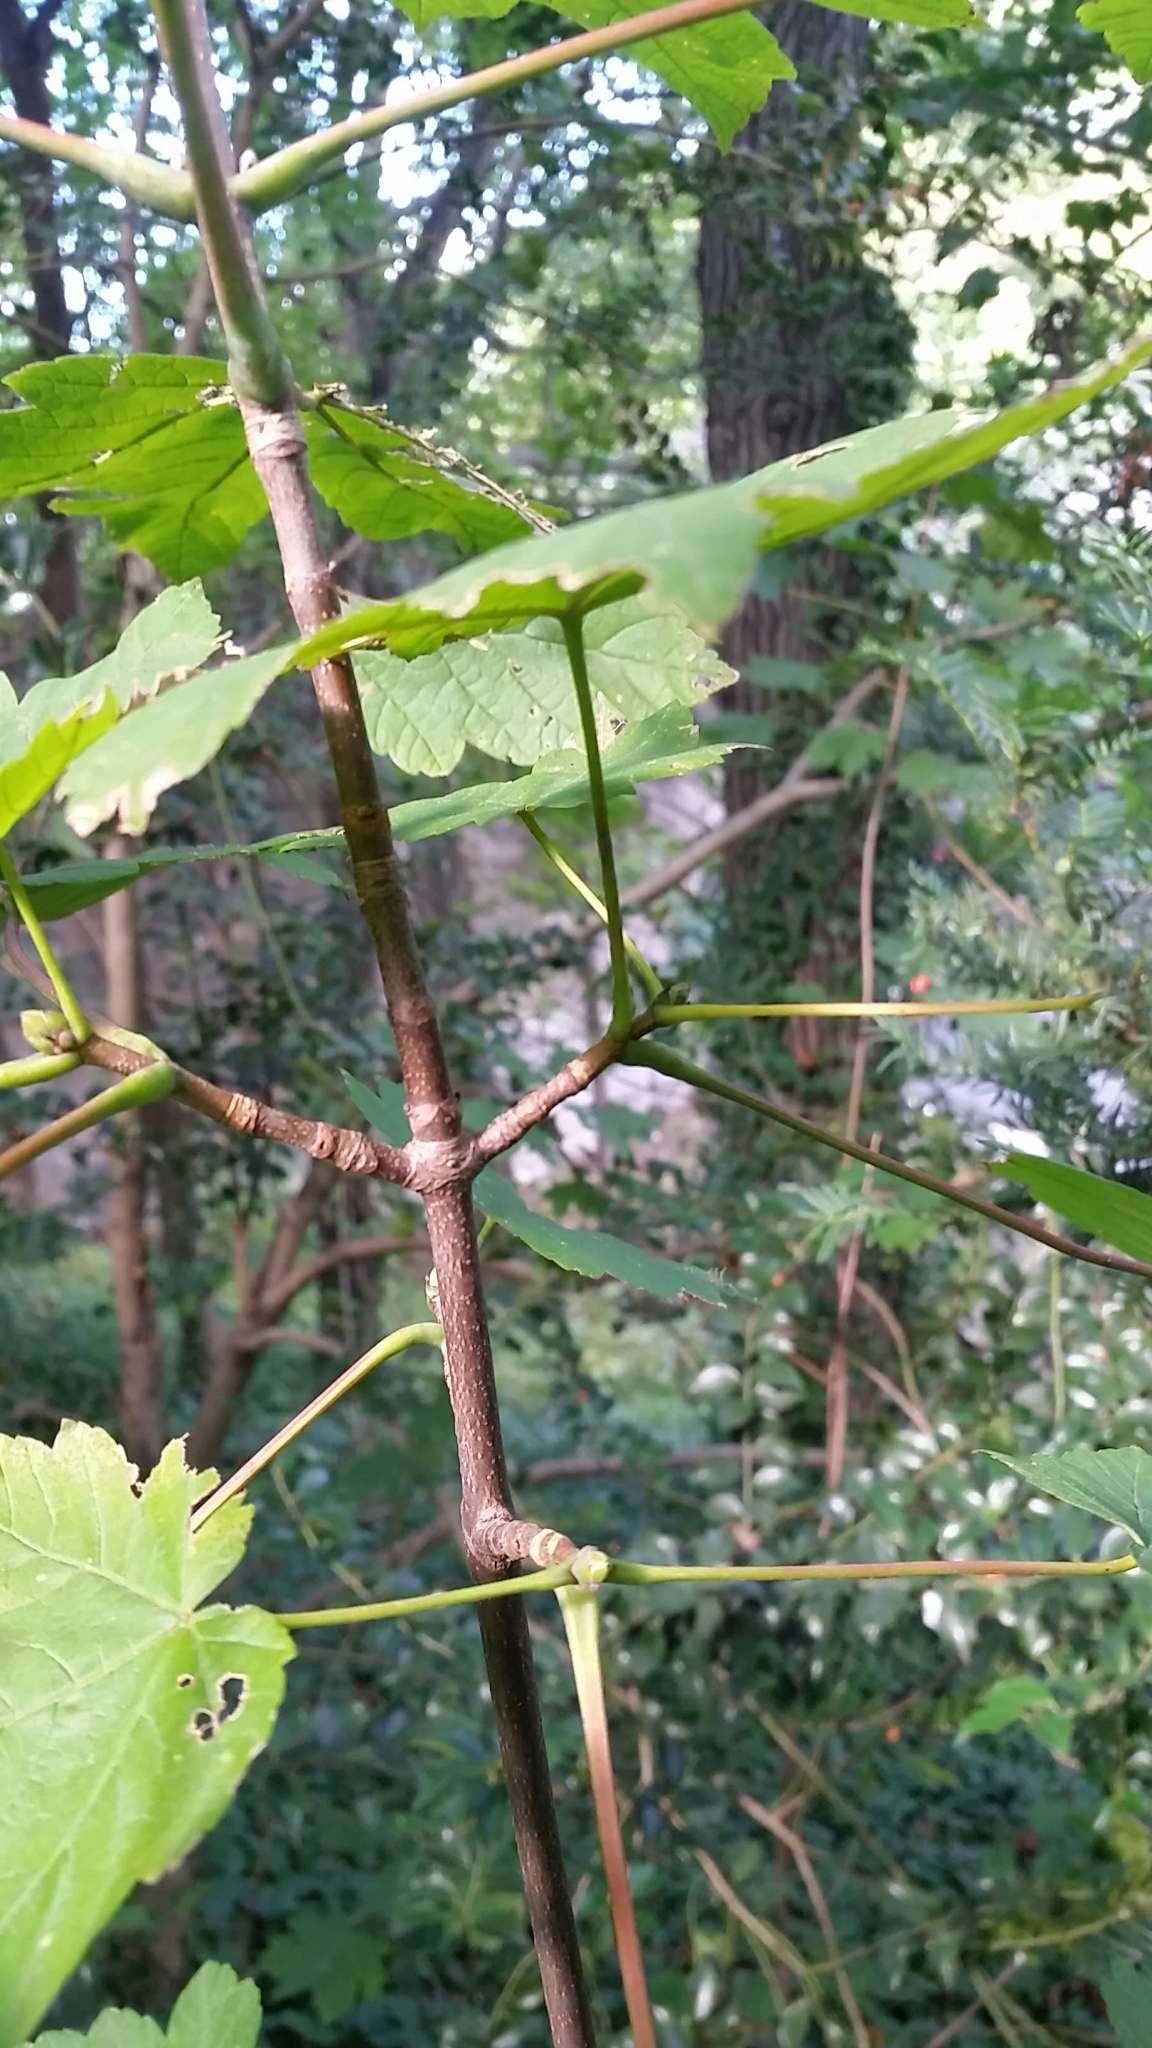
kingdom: Plantae
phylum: Tracheophyta
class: Magnoliopsida
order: Sapindales
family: Sapindaceae
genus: Acer
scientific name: Acer pseudoplatanus
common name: Sycamore
